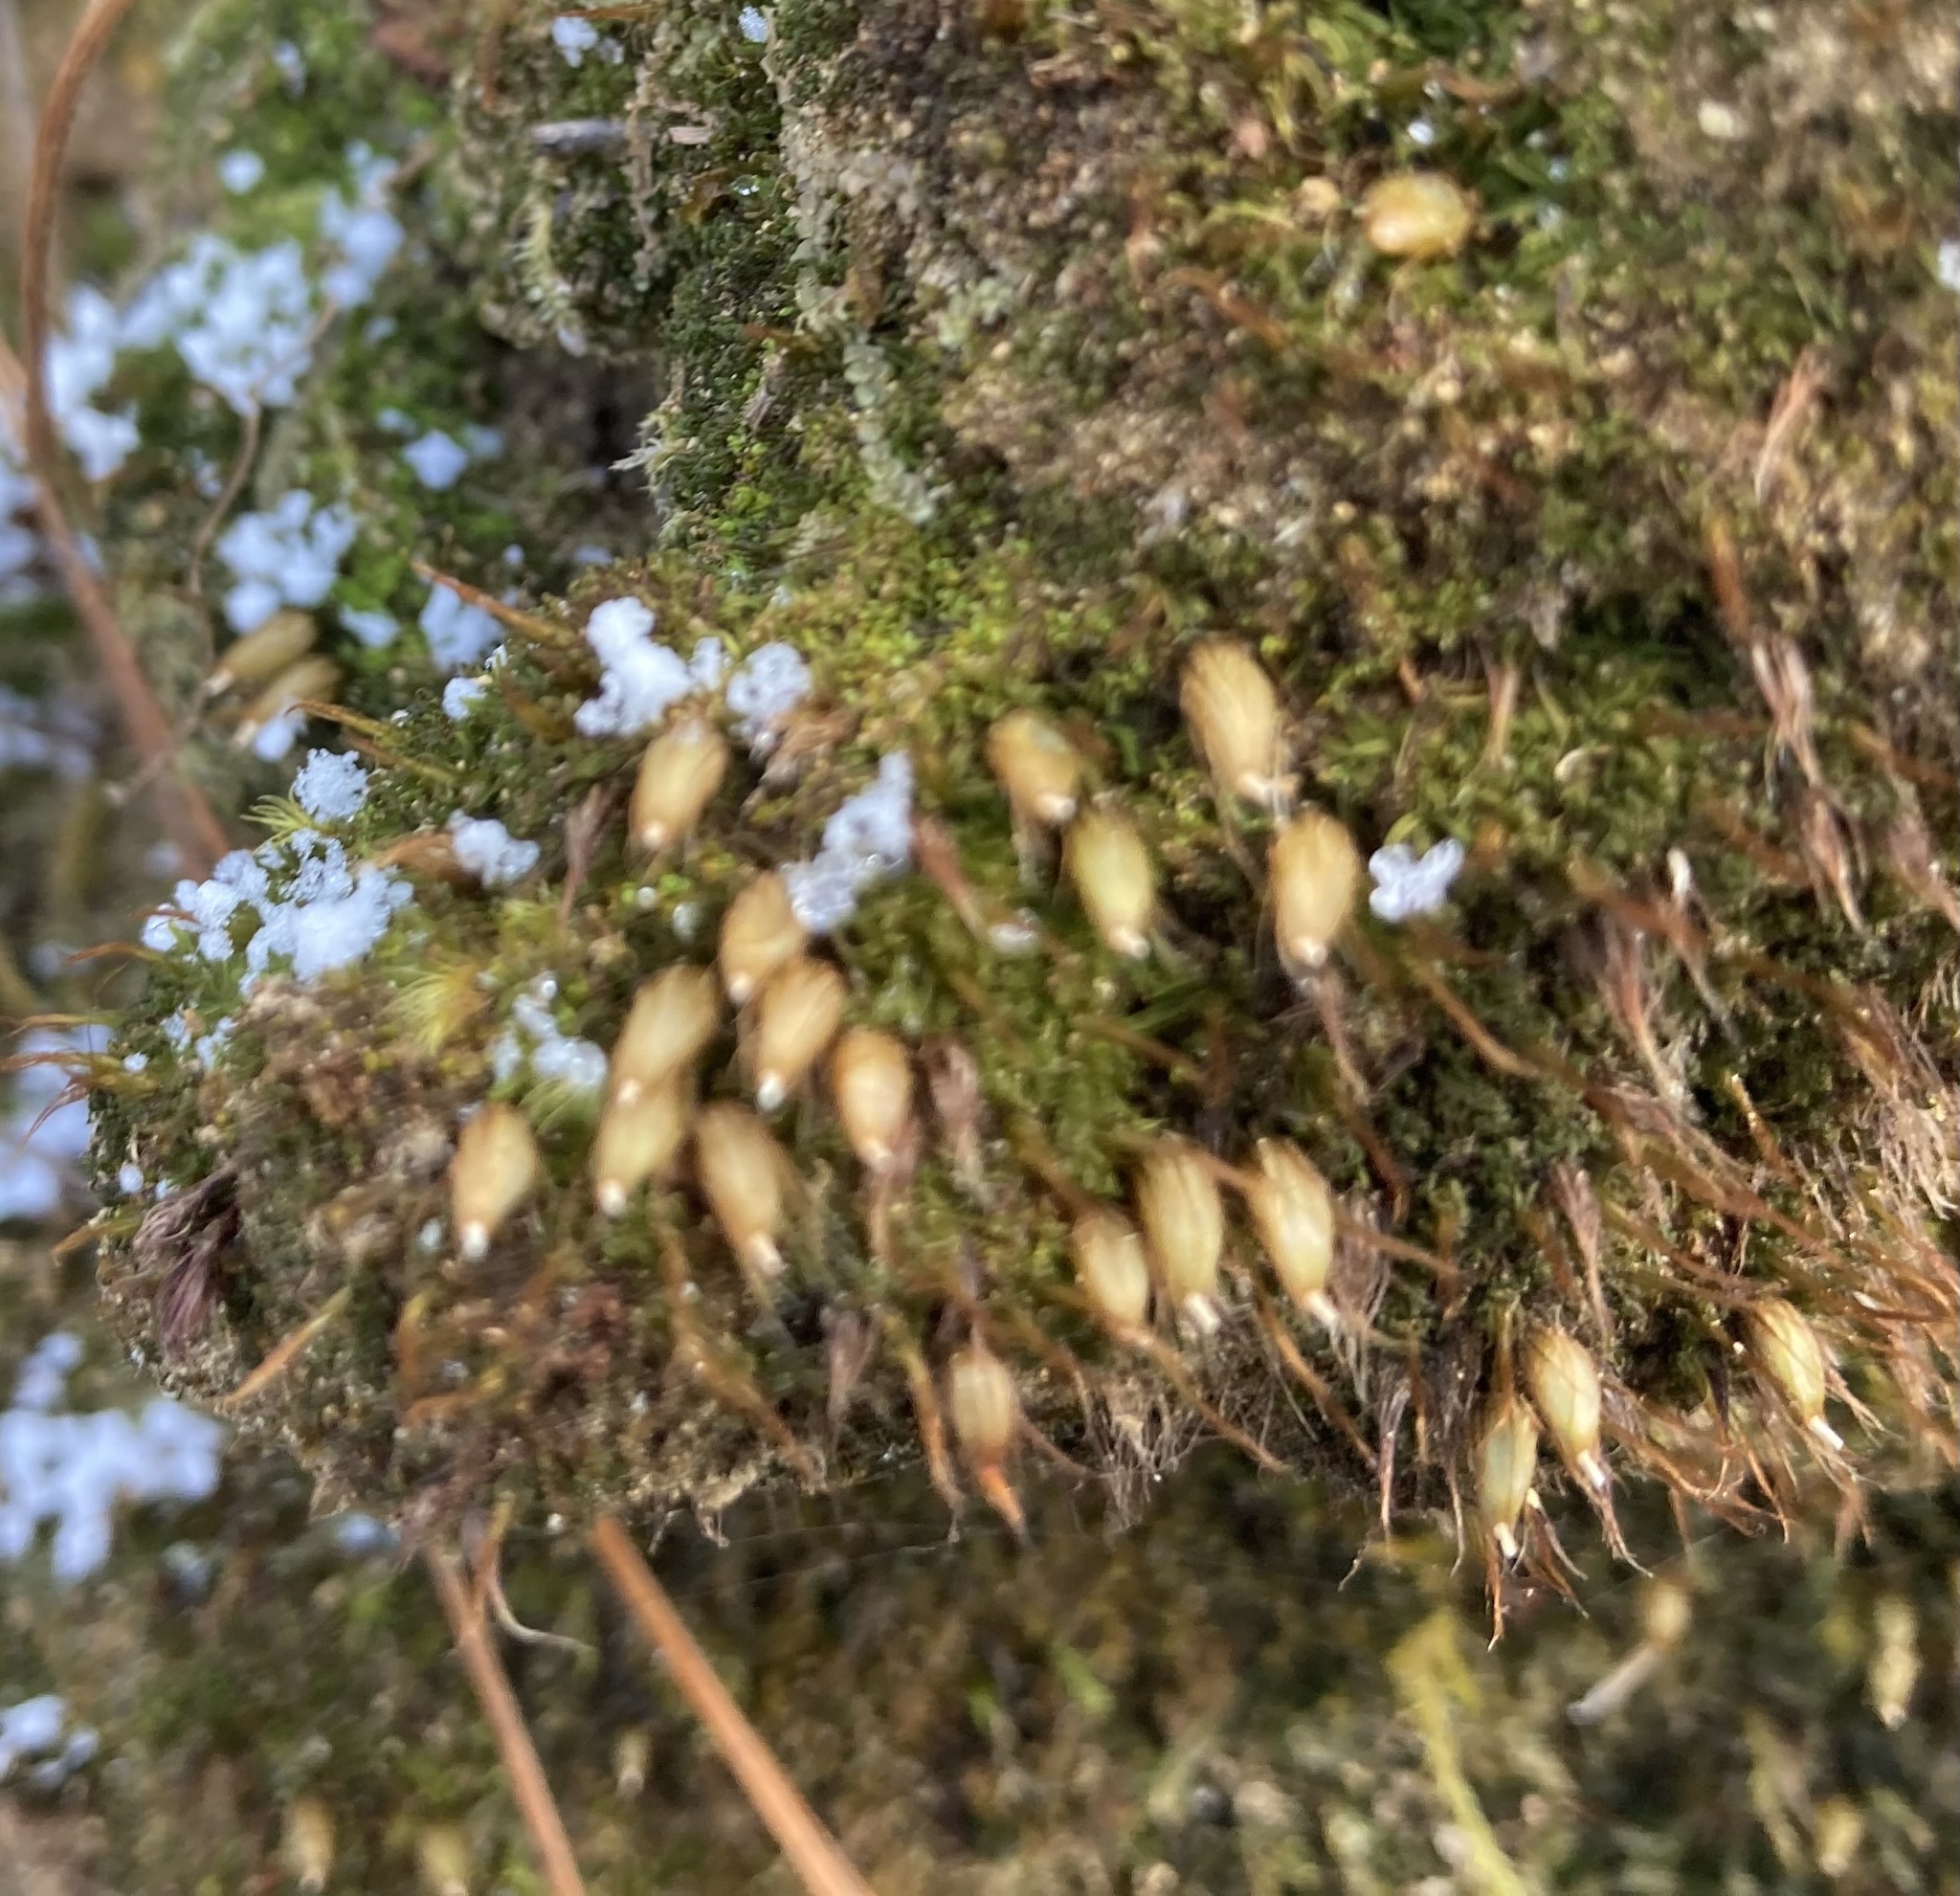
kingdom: Plantae
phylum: Bryophyta
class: Bryopsida
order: Diphysciales
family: Diphysciaceae
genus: Diphyscium
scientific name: Diphyscium foliosum
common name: Nut moss
